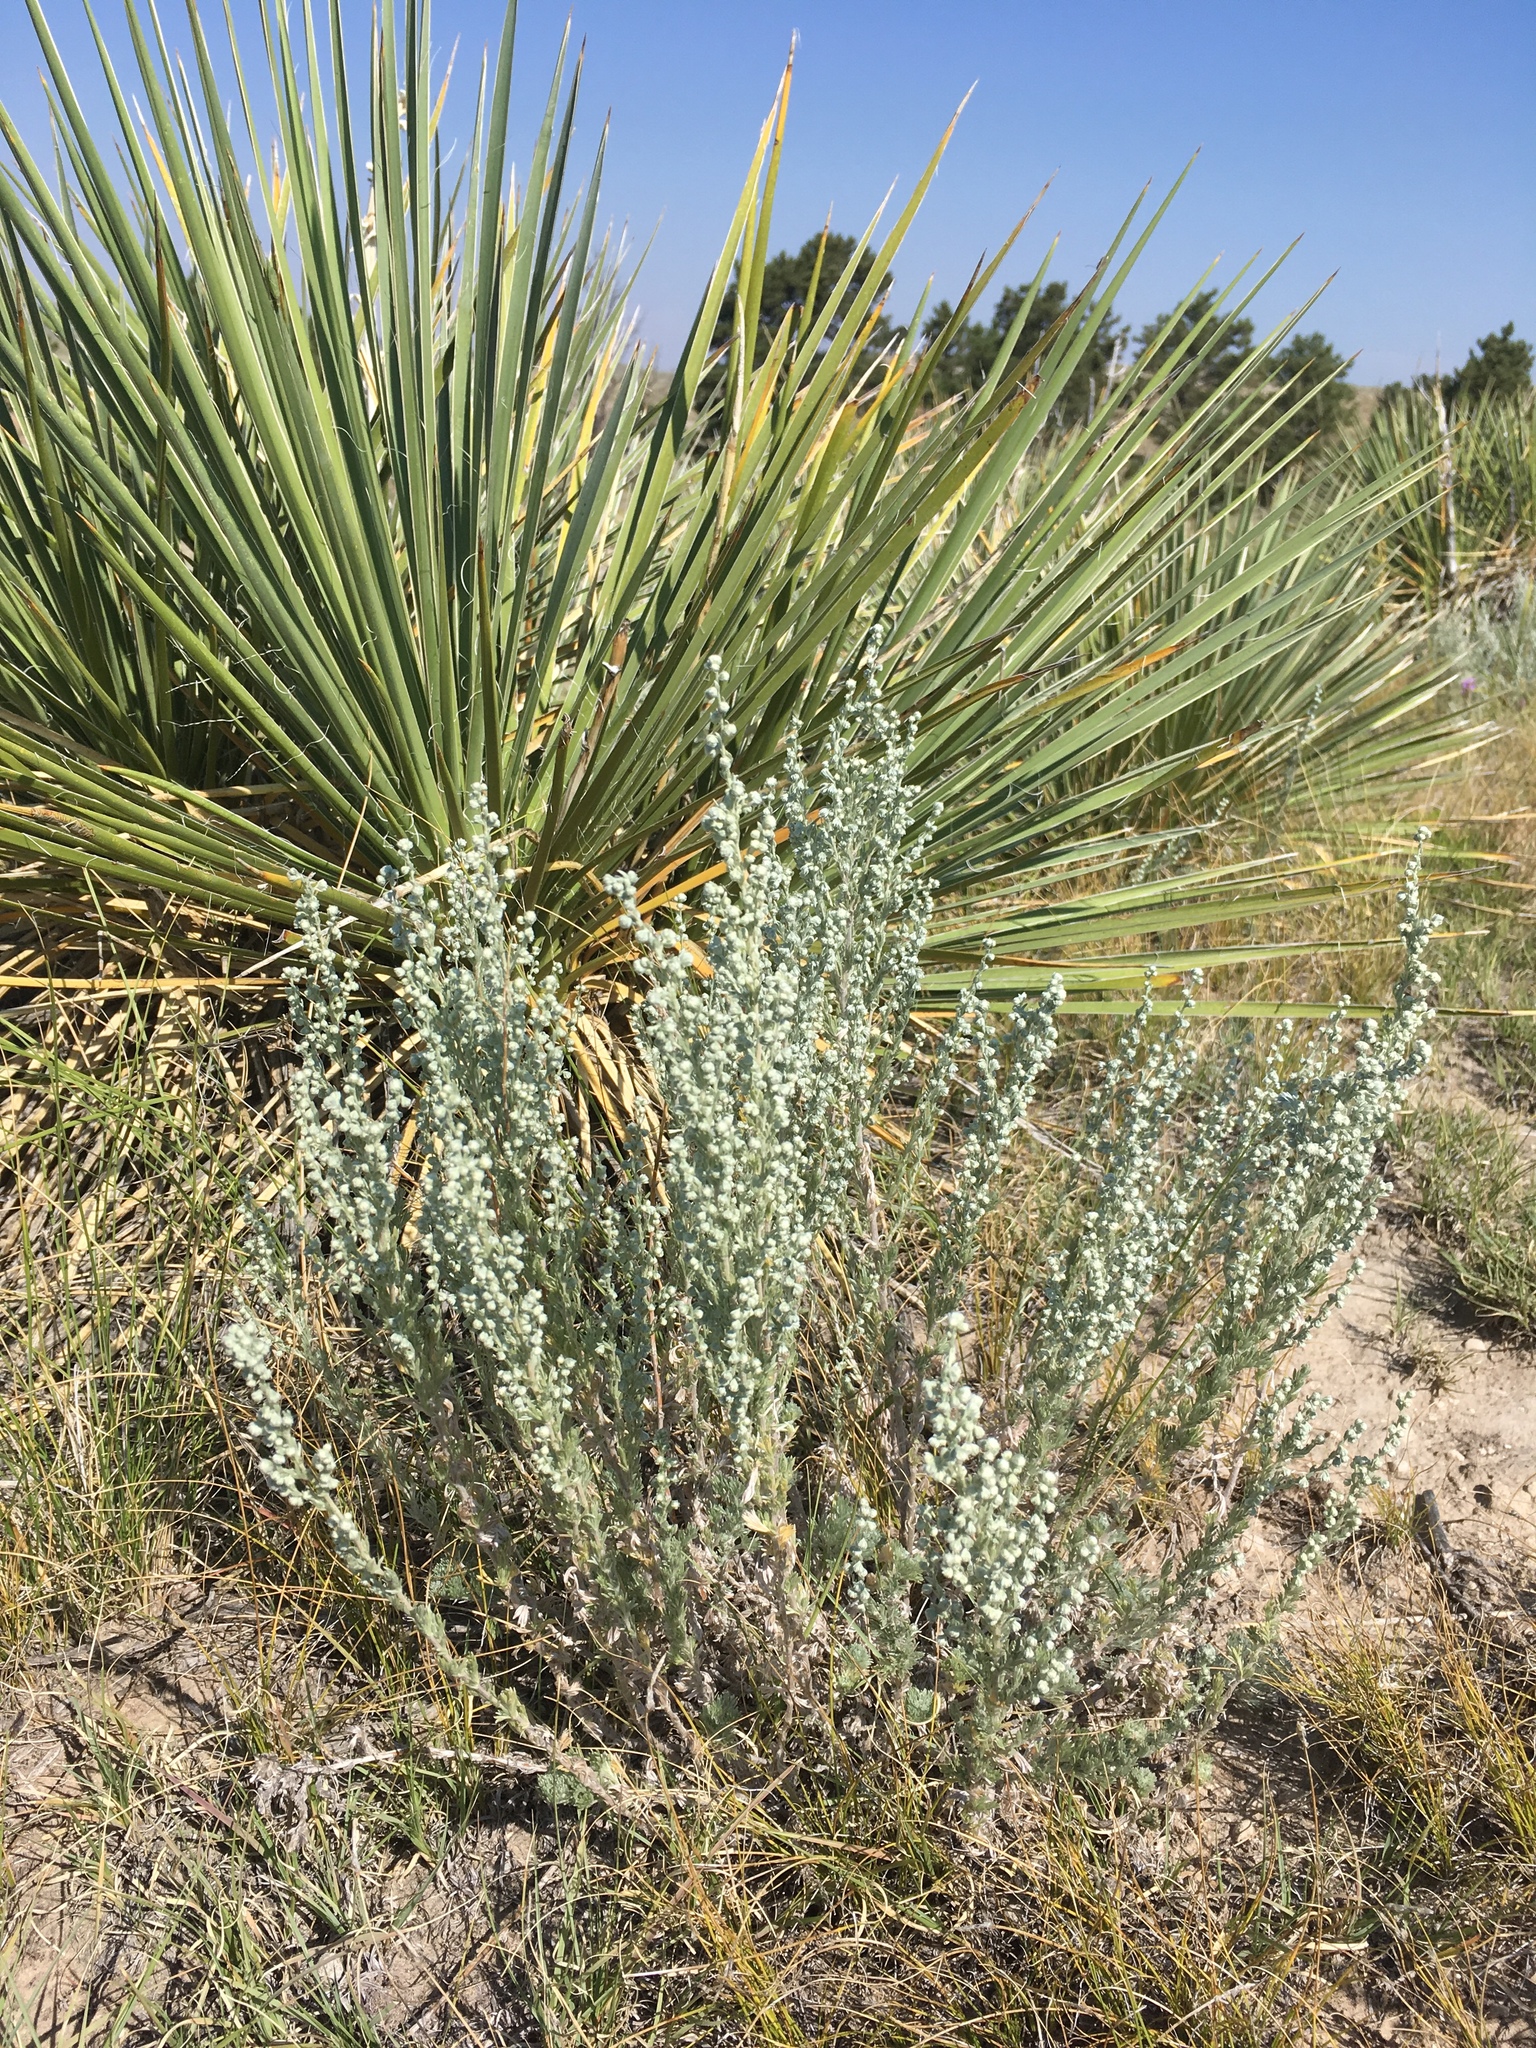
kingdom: Plantae
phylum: Tracheophyta
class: Magnoliopsida
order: Asterales
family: Asteraceae
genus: Artemisia
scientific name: Artemisia frigida
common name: Prairie sagewort
